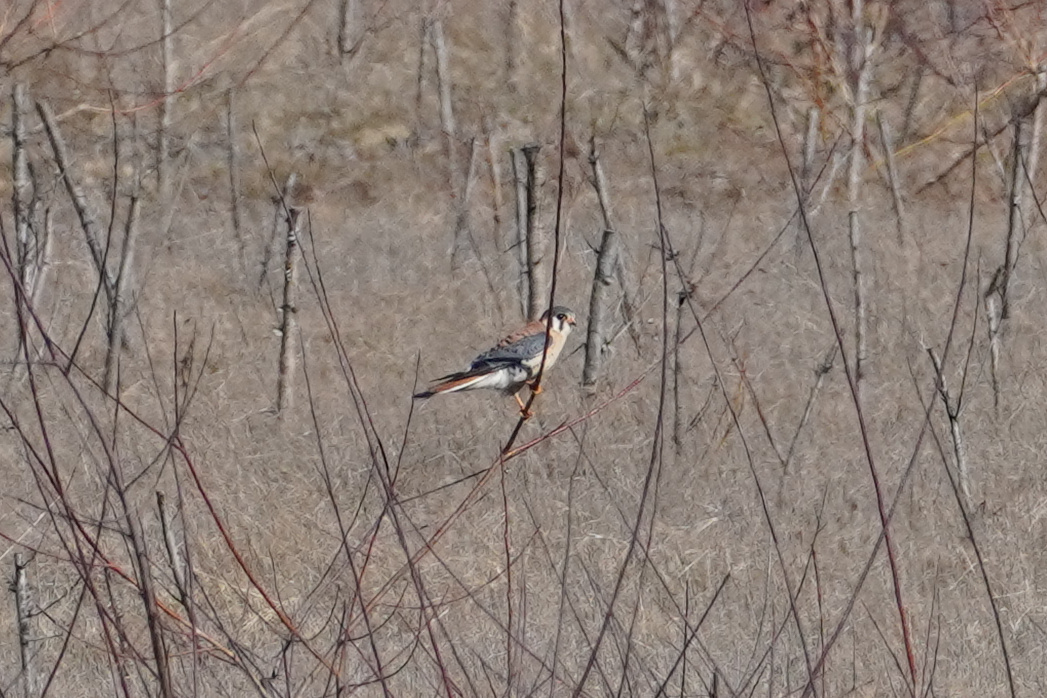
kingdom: Animalia
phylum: Chordata
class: Aves
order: Falconiformes
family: Falconidae
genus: Falco
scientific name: Falco sparverius
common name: American kestrel
